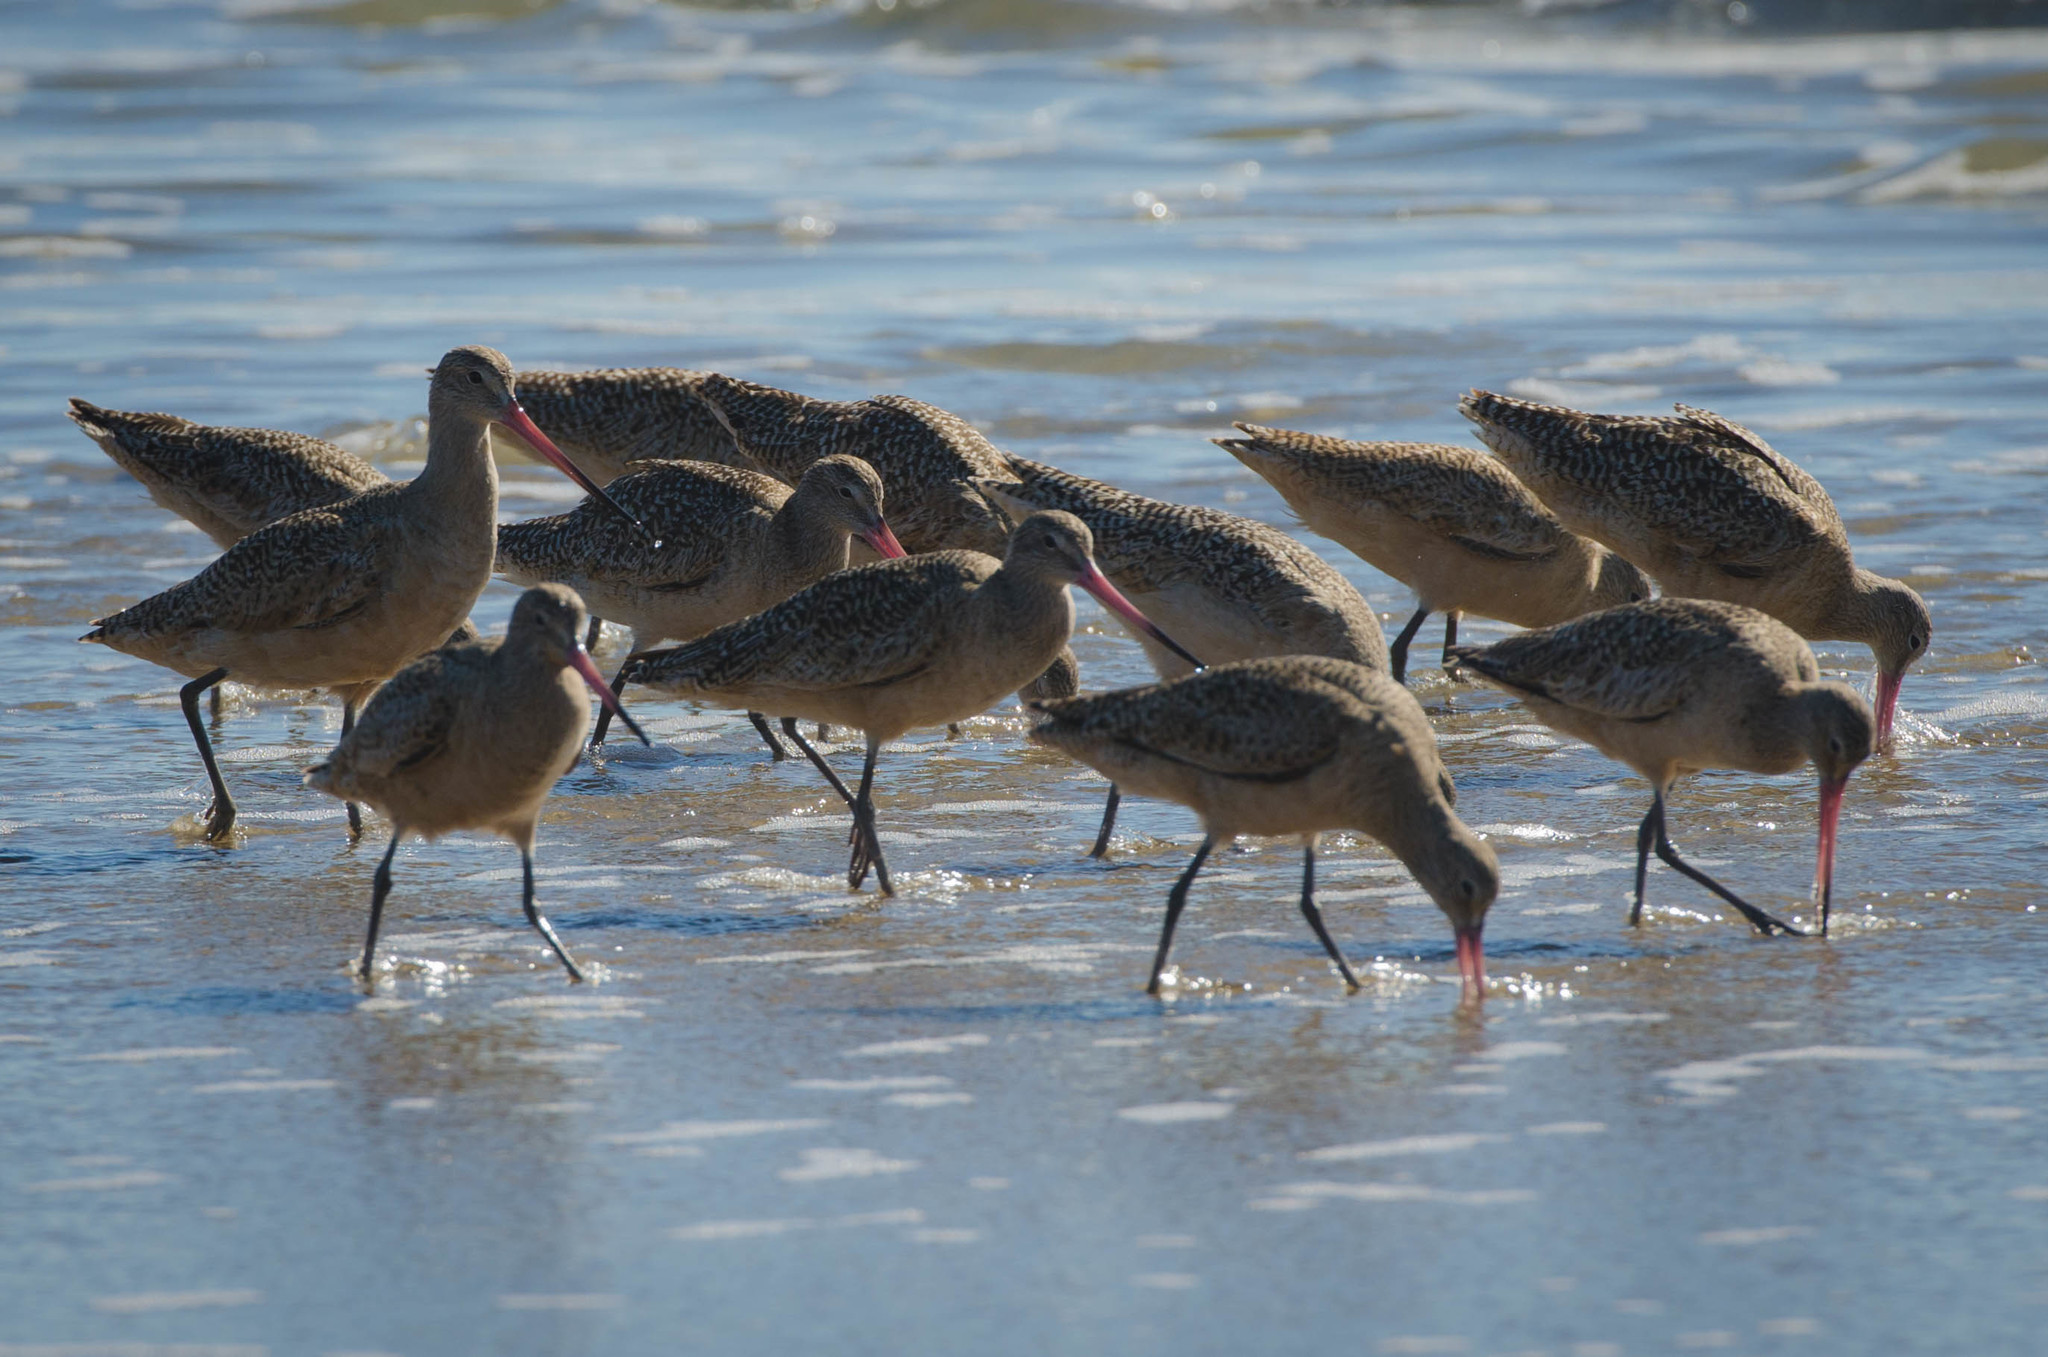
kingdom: Animalia
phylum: Chordata
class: Aves
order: Charadriiformes
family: Scolopacidae
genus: Limosa
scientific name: Limosa fedoa
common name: Marbled godwit
